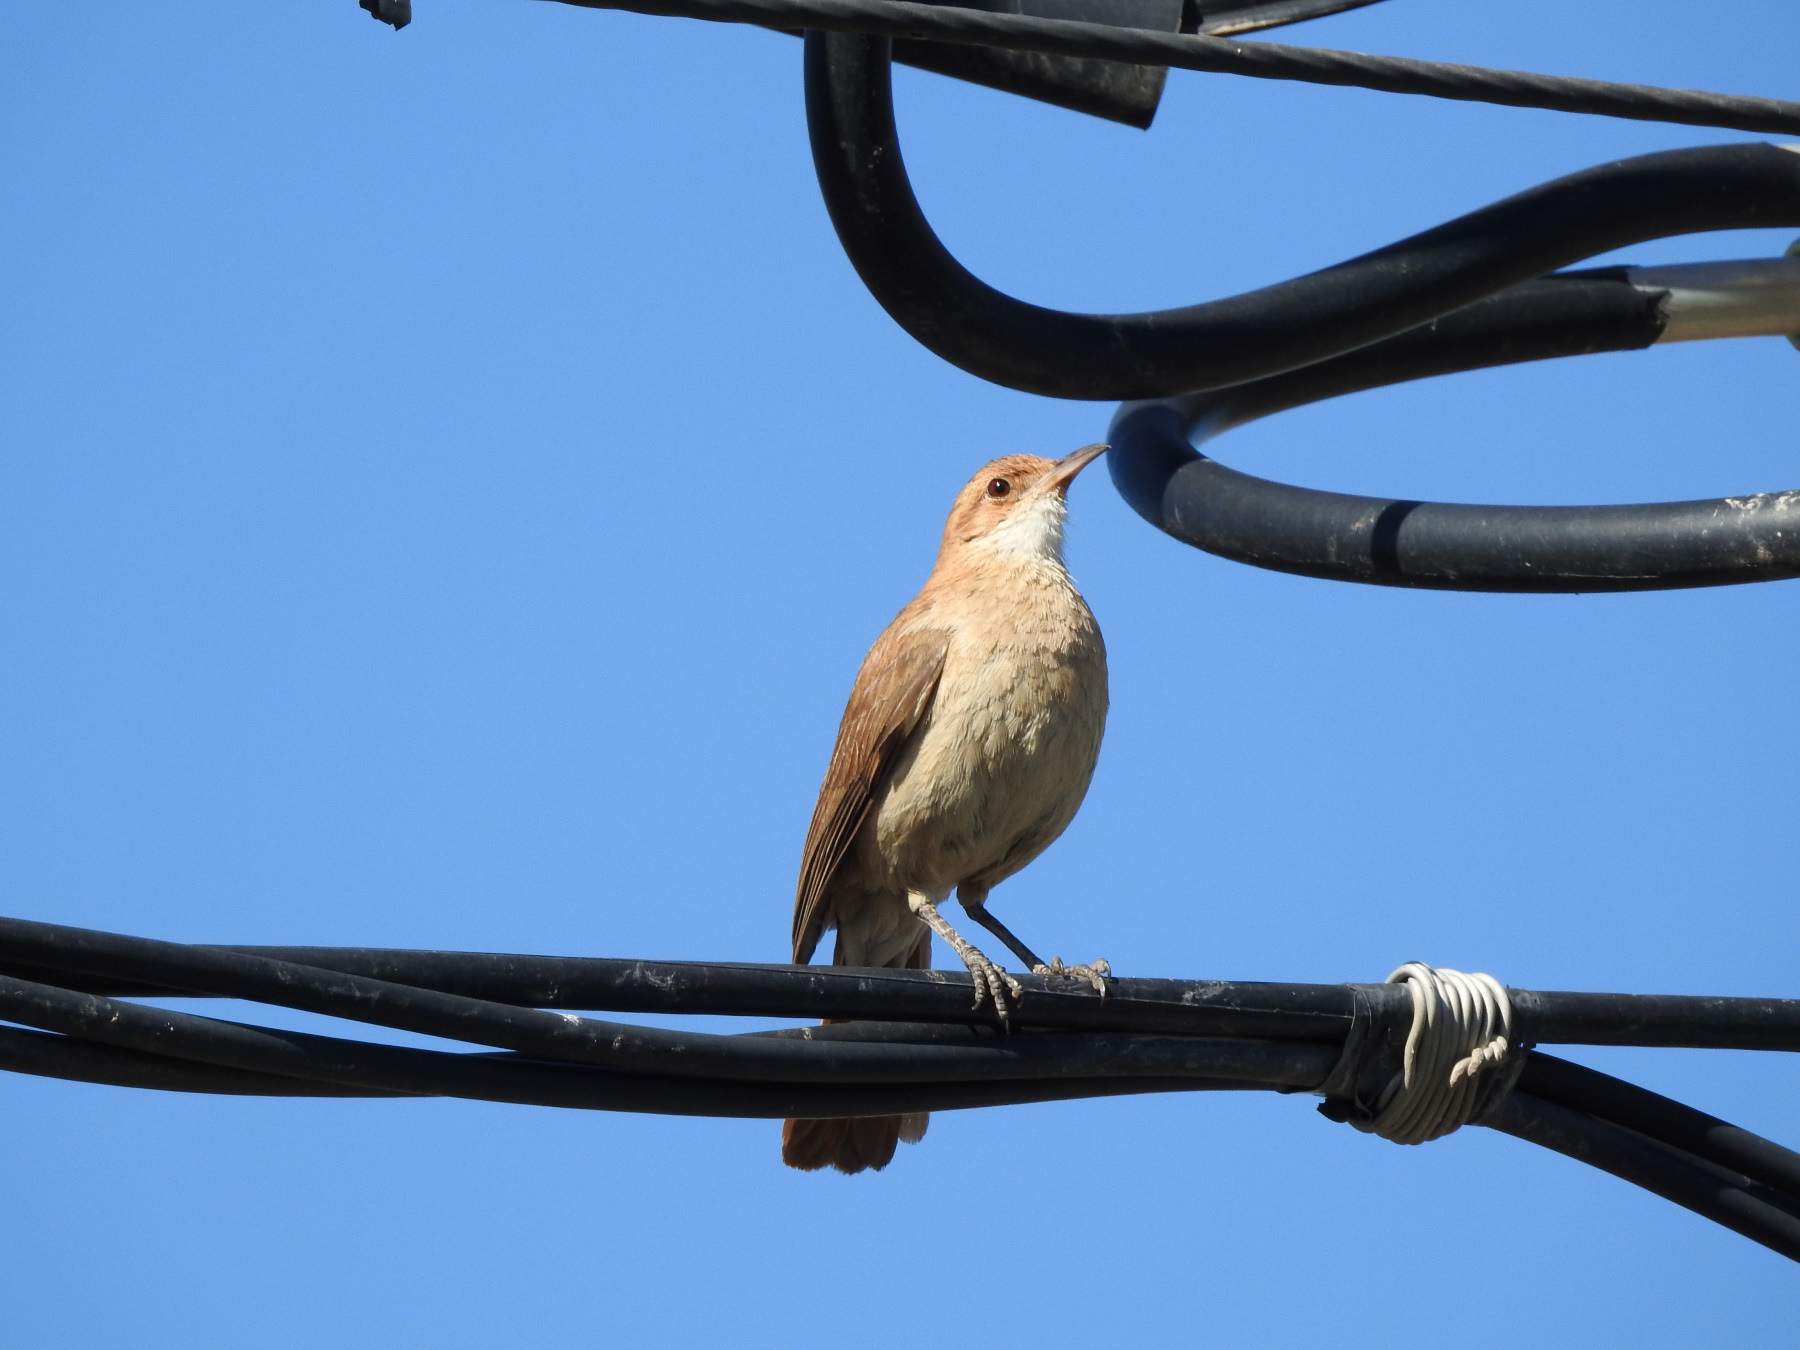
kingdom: Animalia
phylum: Chordata
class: Aves
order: Passeriformes
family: Furnariidae
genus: Furnarius
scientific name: Furnarius rufus
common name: Rufous hornero
